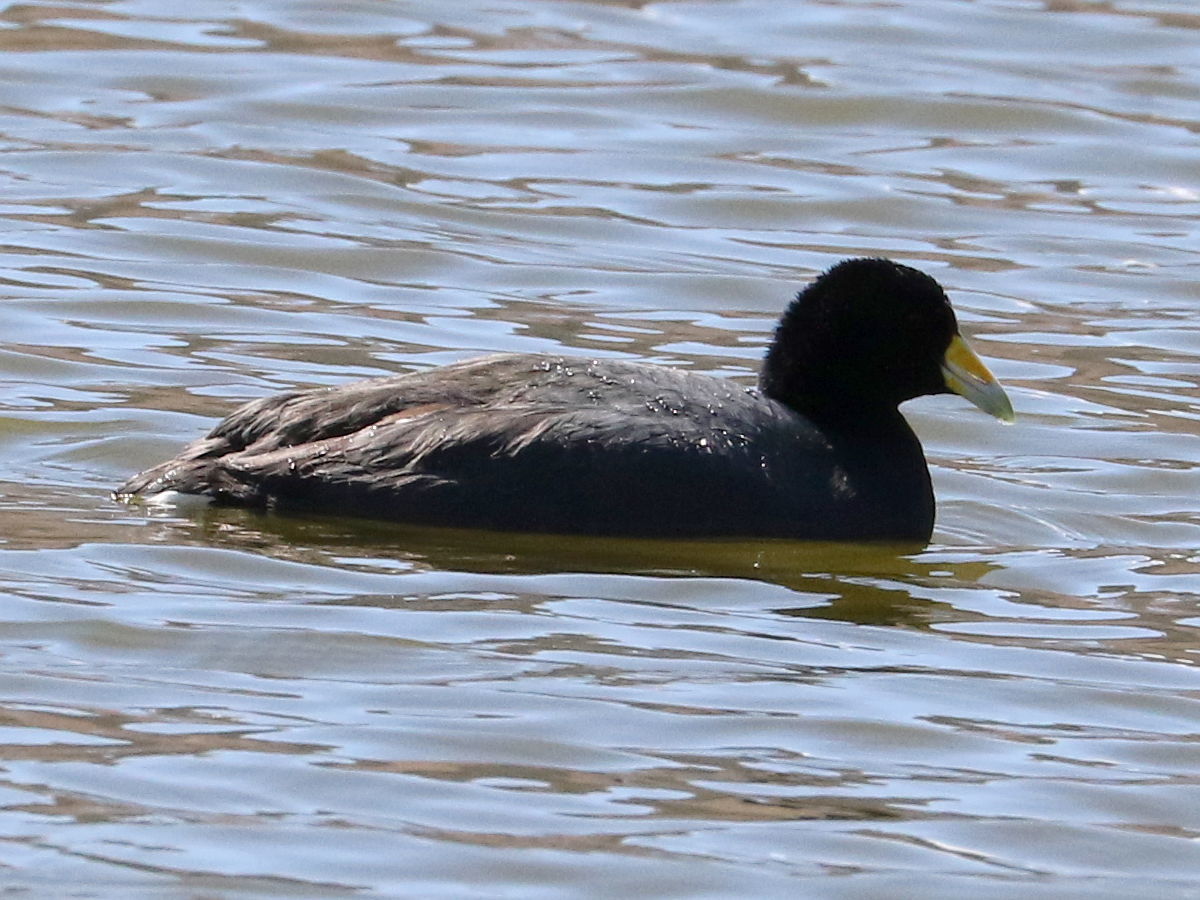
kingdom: Animalia
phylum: Chordata
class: Aves
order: Gruiformes
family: Rallidae
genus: Fulica
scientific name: Fulica ardesiaca
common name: Andean coot
